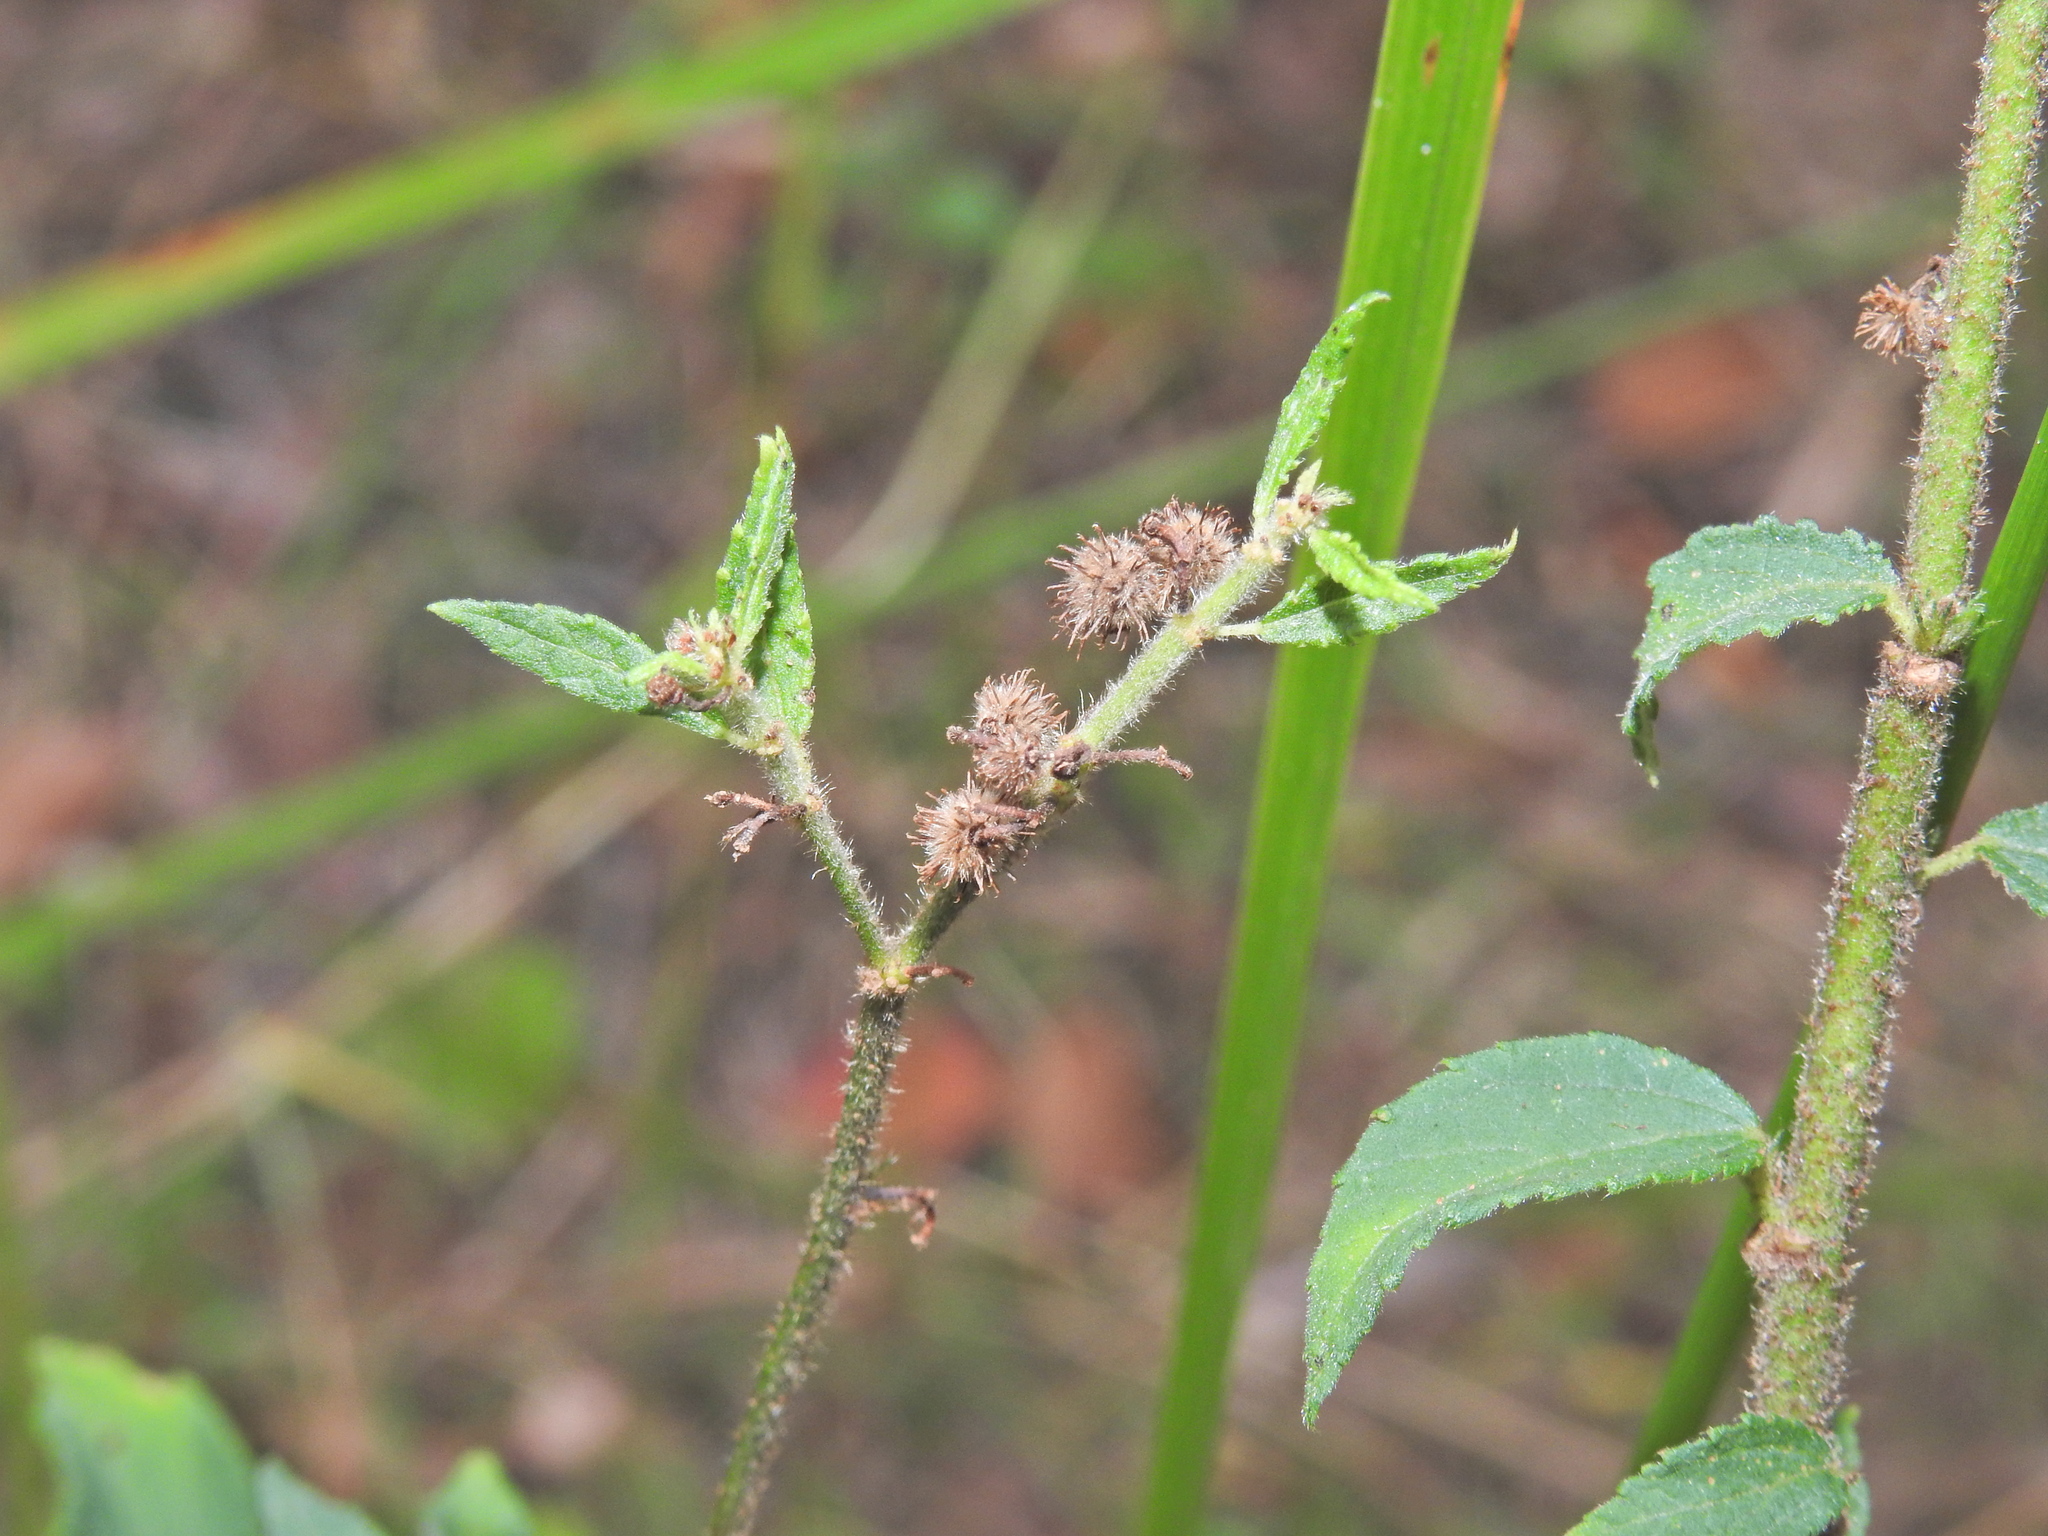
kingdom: Plantae
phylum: Tracheophyta
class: Magnoliopsida
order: Malvales
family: Malvaceae
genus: Triumfetta
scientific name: Triumfetta rhomboidea
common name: Diamond burbark
